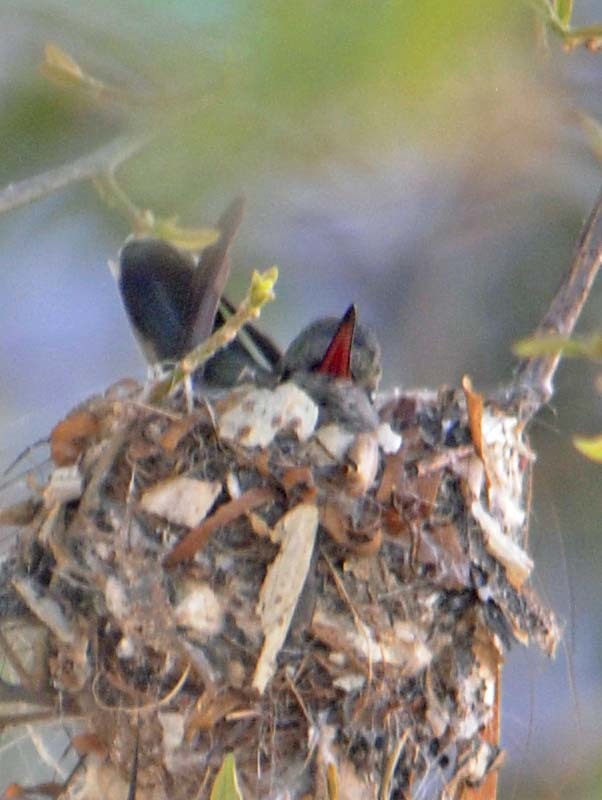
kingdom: Animalia
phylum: Chordata
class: Aves
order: Apodiformes
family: Trochilidae
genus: Cynanthus
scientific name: Cynanthus latirostris
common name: Broad-billed hummingbird
